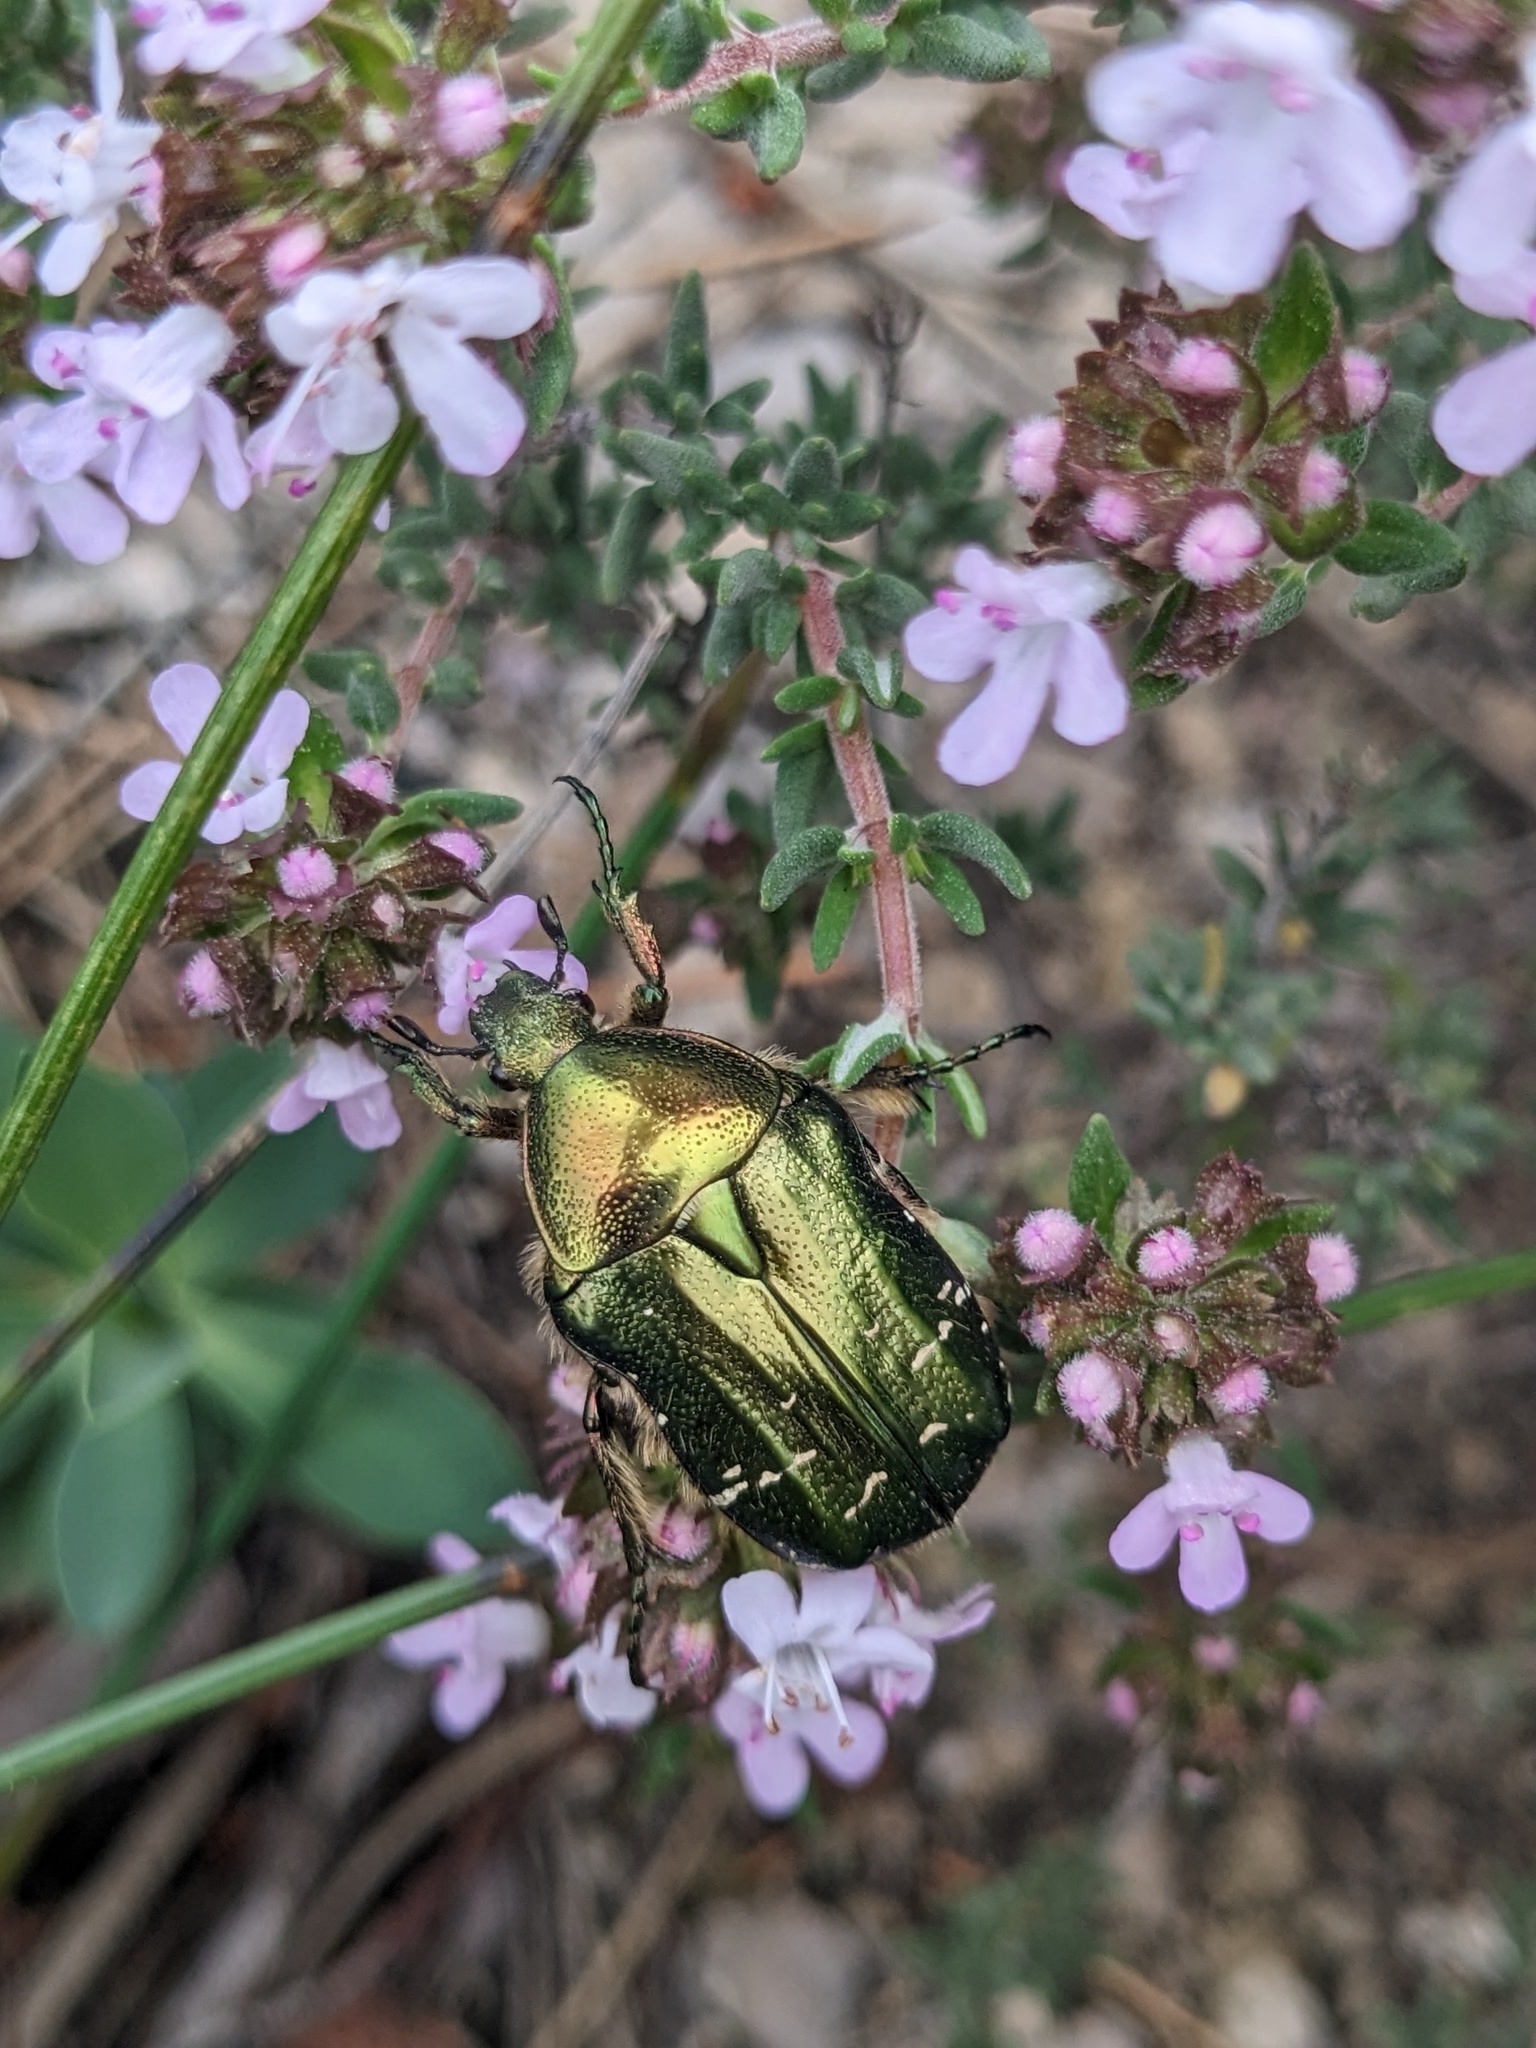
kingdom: Animalia
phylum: Arthropoda
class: Insecta
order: Coleoptera
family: Scarabaeidae
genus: Cetonia
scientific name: Cetonia aurata
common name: Rose chafer
